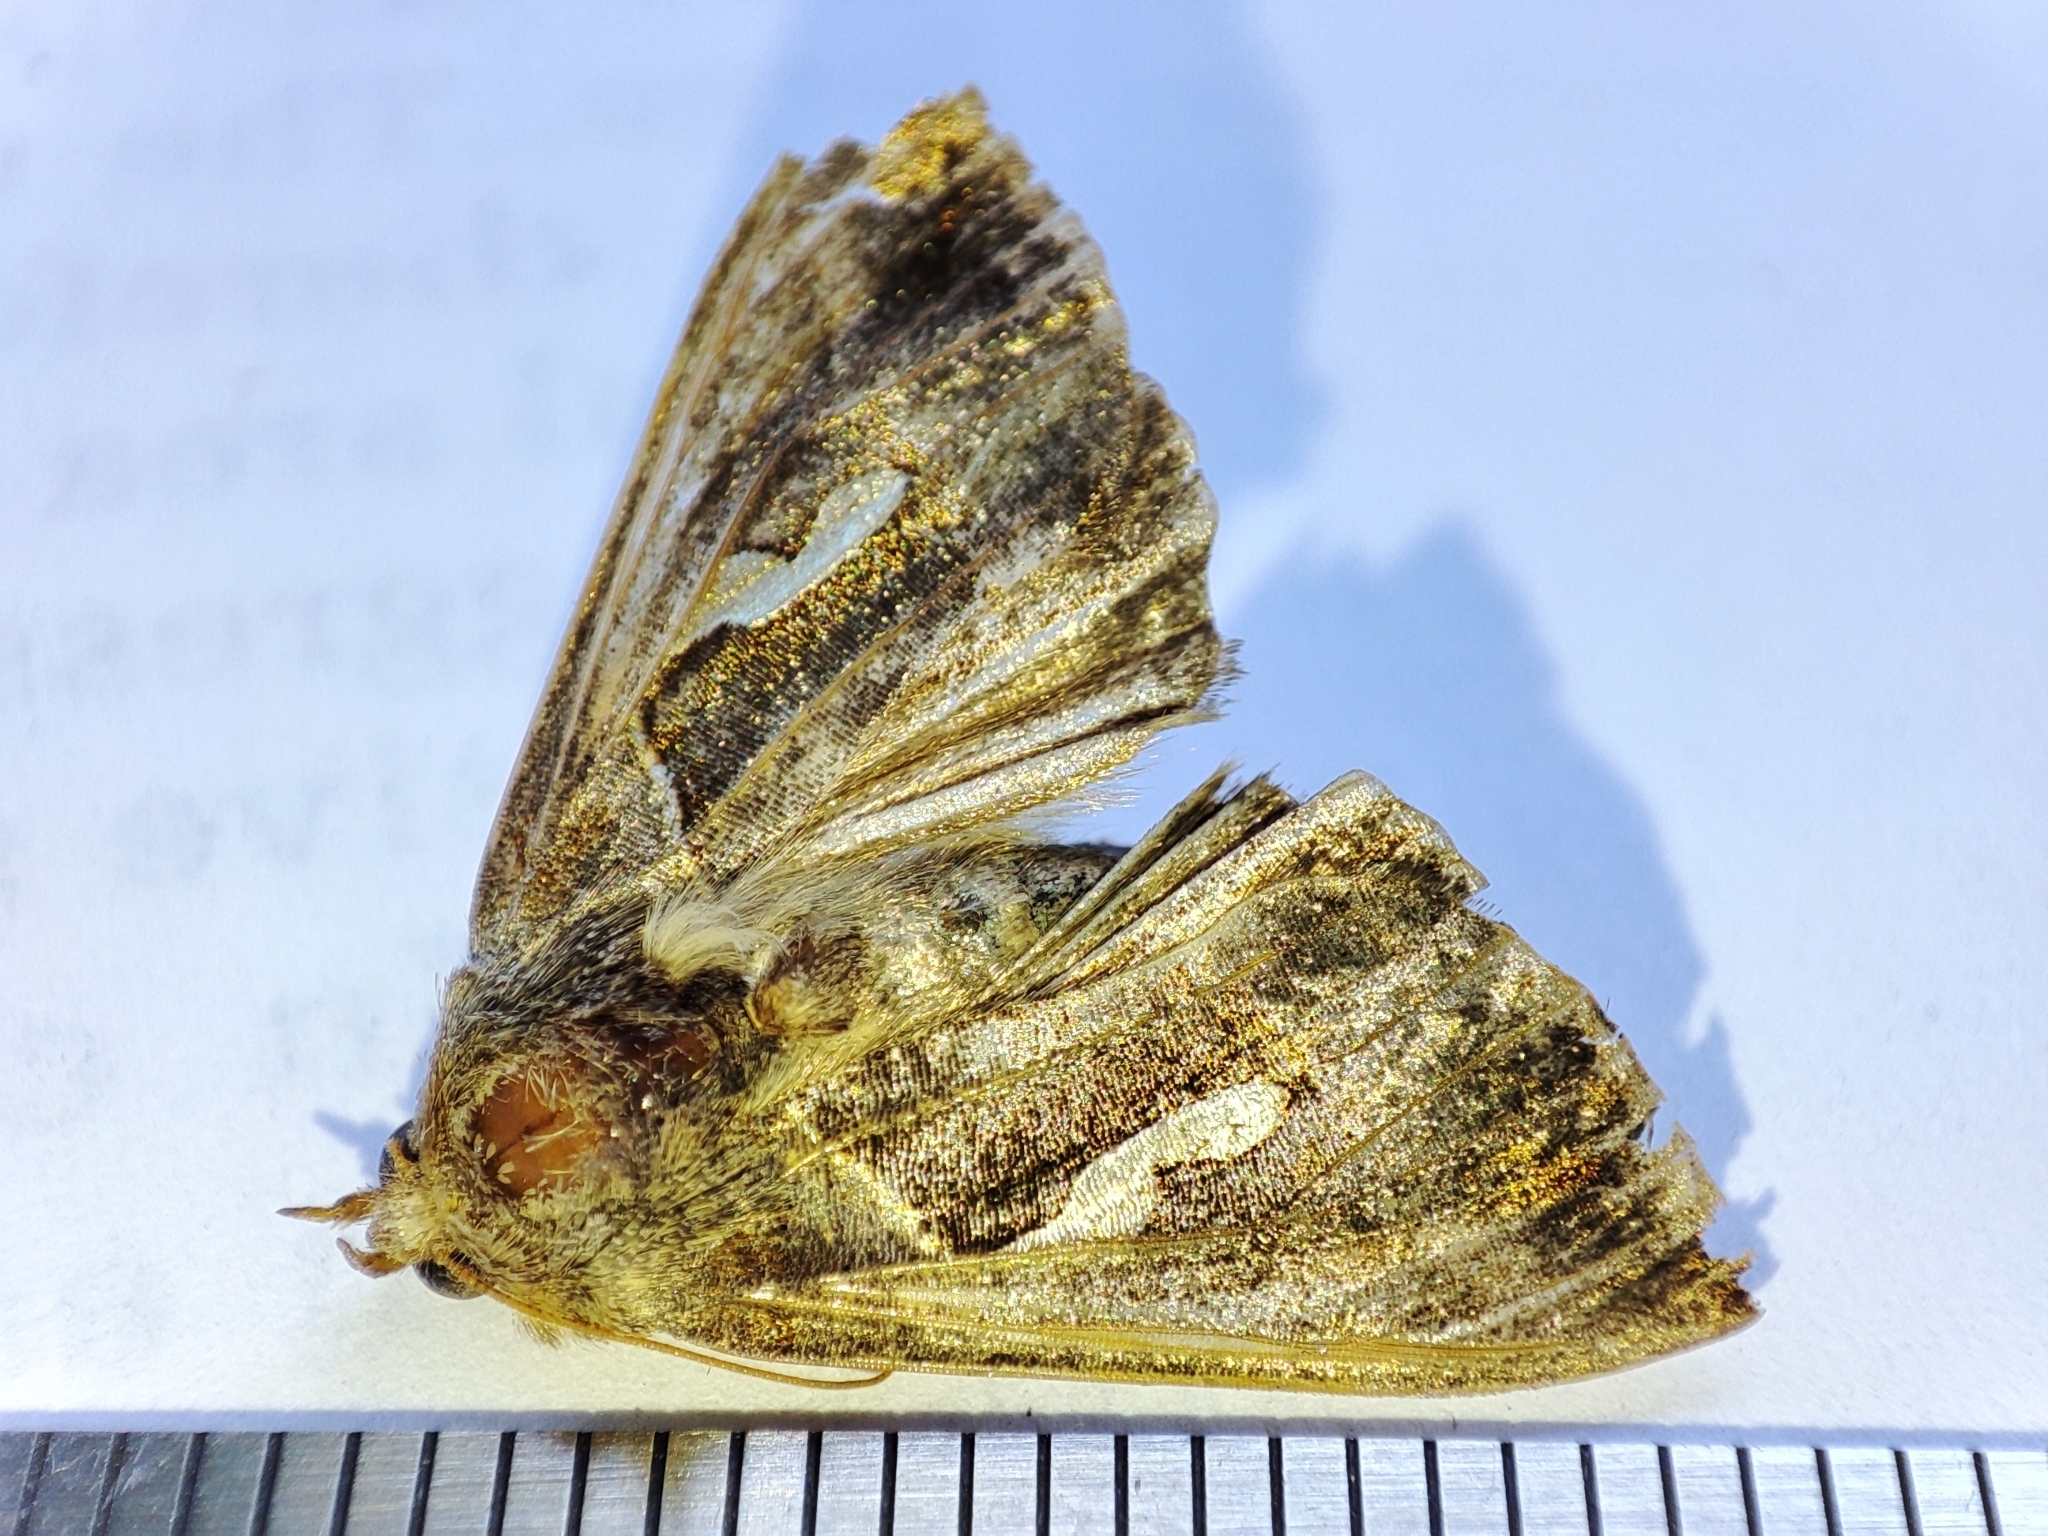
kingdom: Animalia
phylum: Arthropoda
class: Insecta
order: Lepidoptera
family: Noctuidae
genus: Macdunnoughia
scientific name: Macdunnoughia confusa
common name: Dewick's plusia
